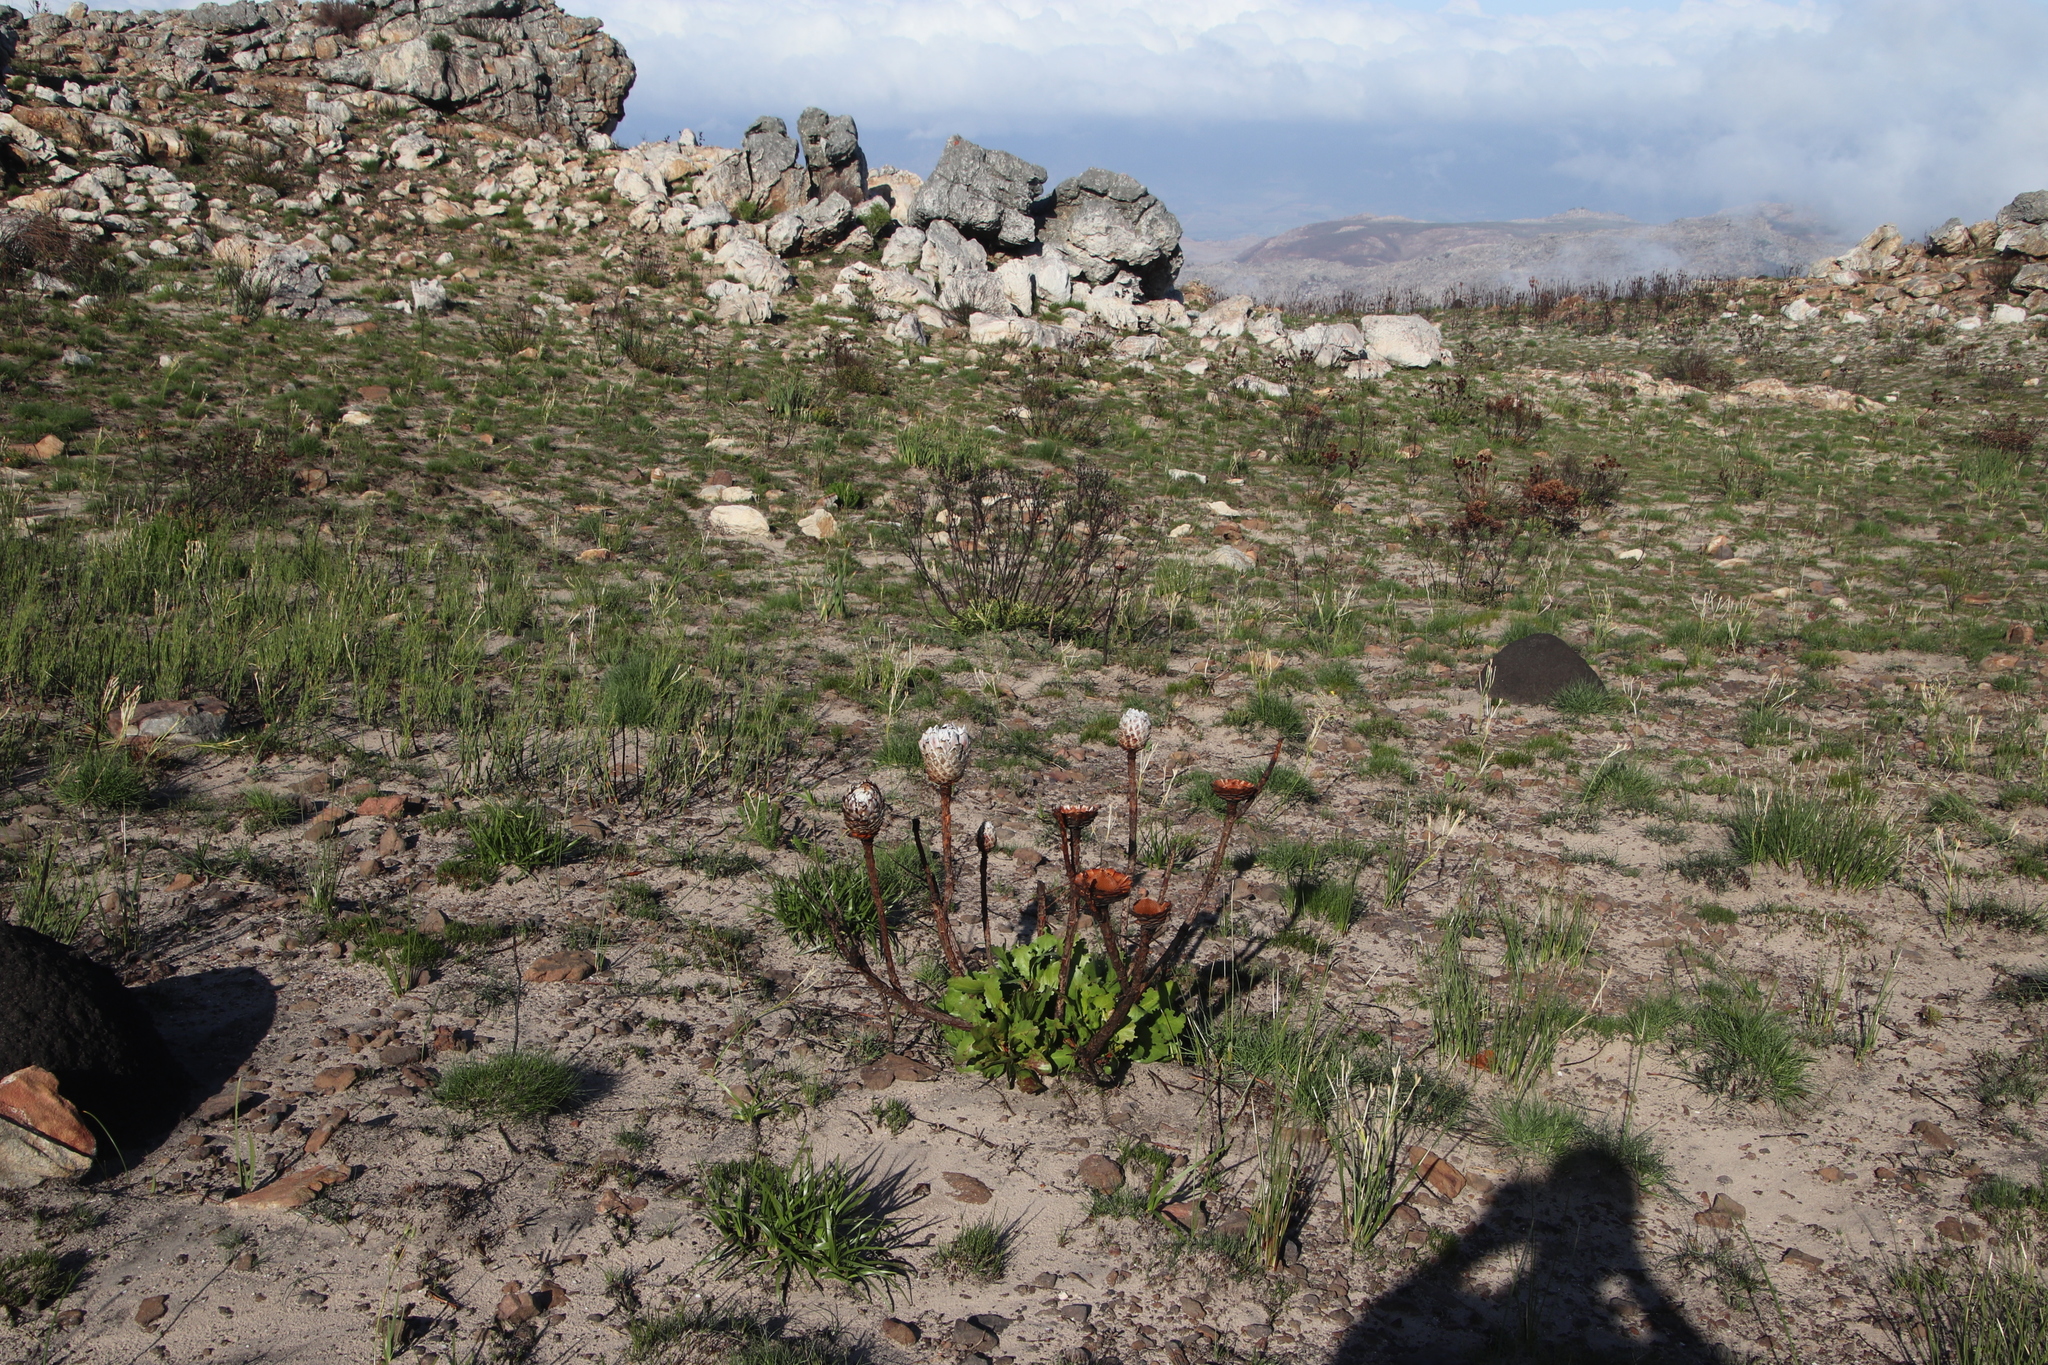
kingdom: Plantae
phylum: Tracheophyta
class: Magnoliopsida
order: Proteales
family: Proteaceae
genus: Protea
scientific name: Protea cynaroides
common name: King protea
